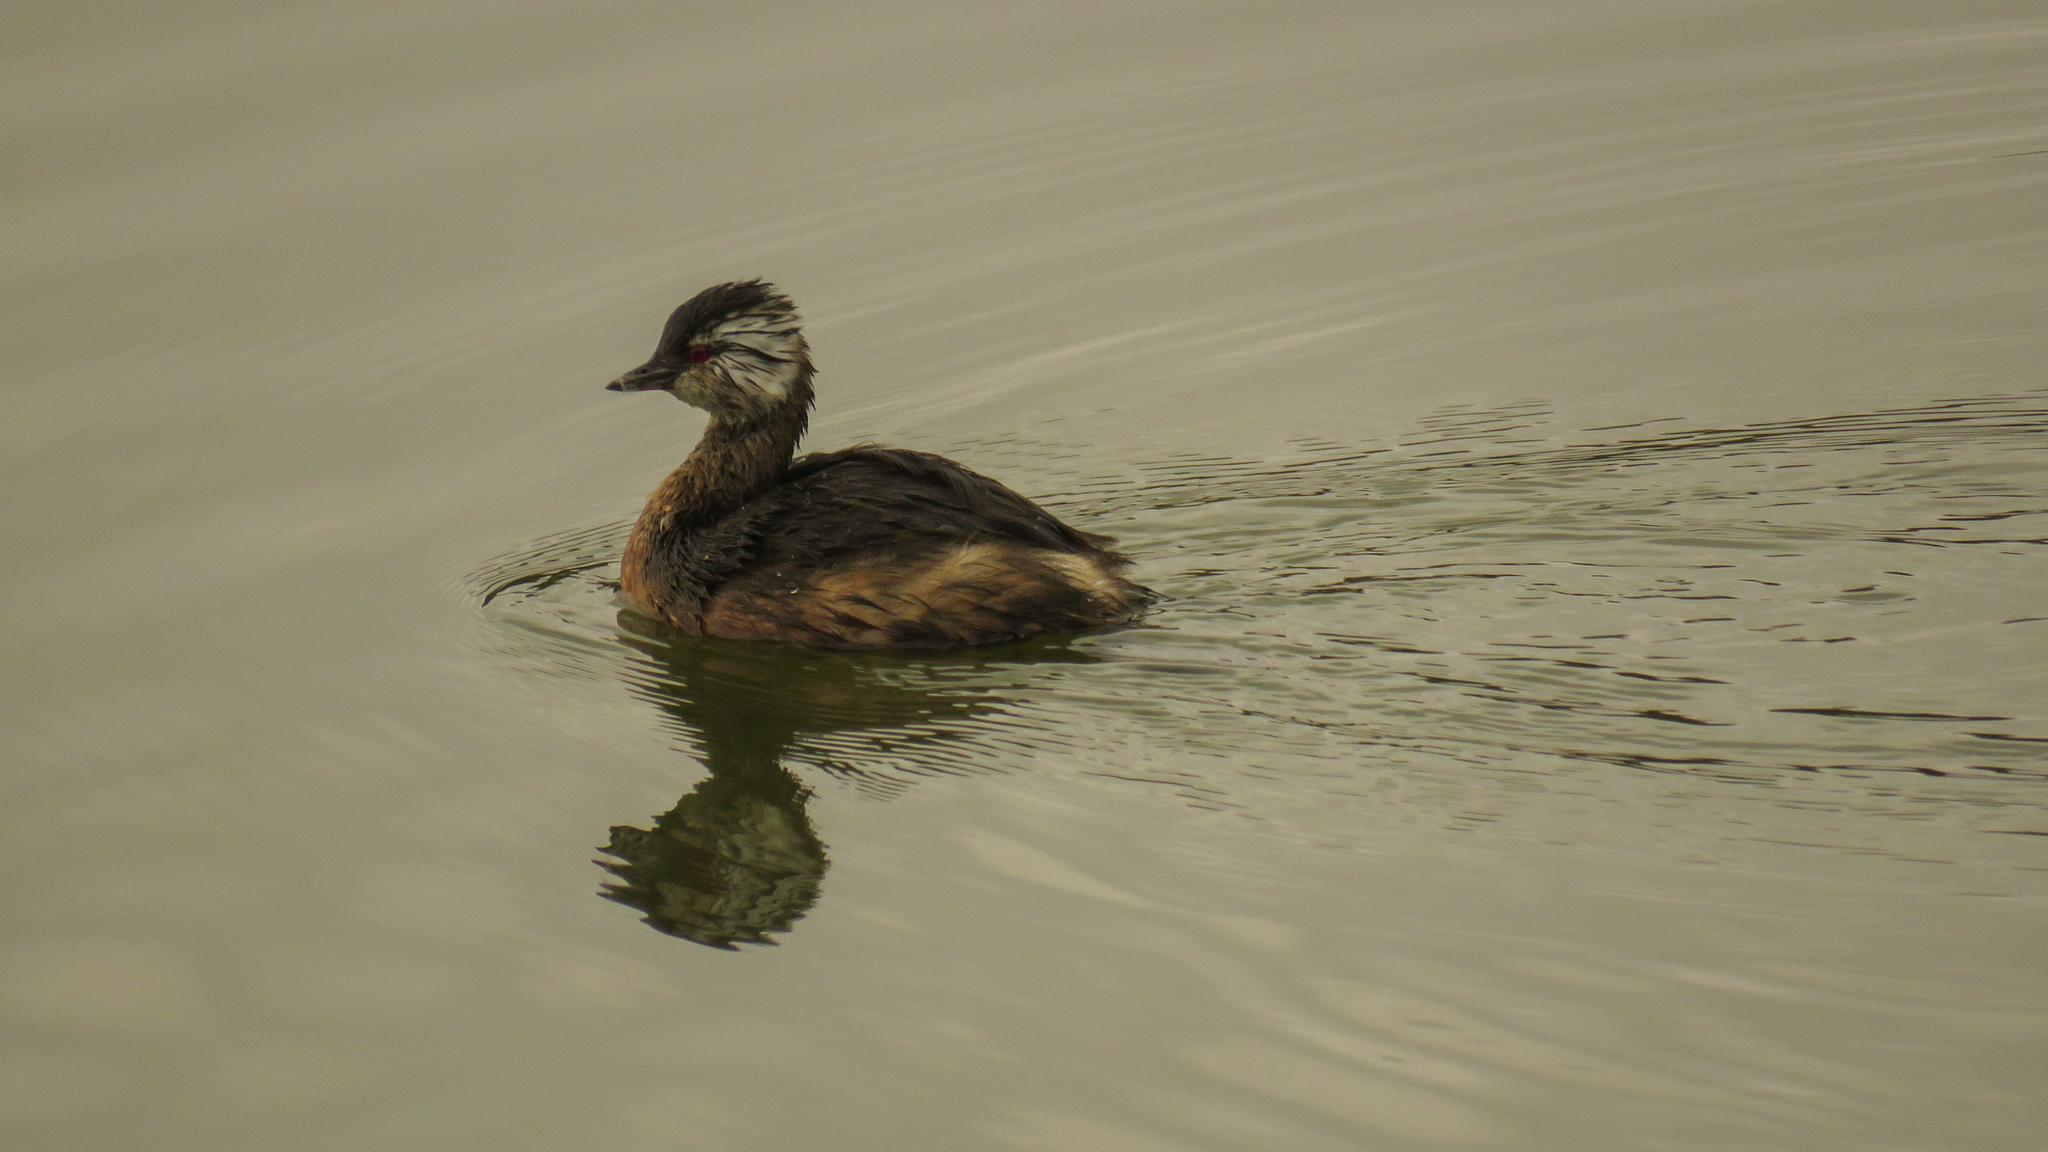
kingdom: Animalia
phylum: Chordata
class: Aves
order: Podicipediformes
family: Podicipedidae
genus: Rollandia
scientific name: Rollandia rolland
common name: White-tufted grebe
